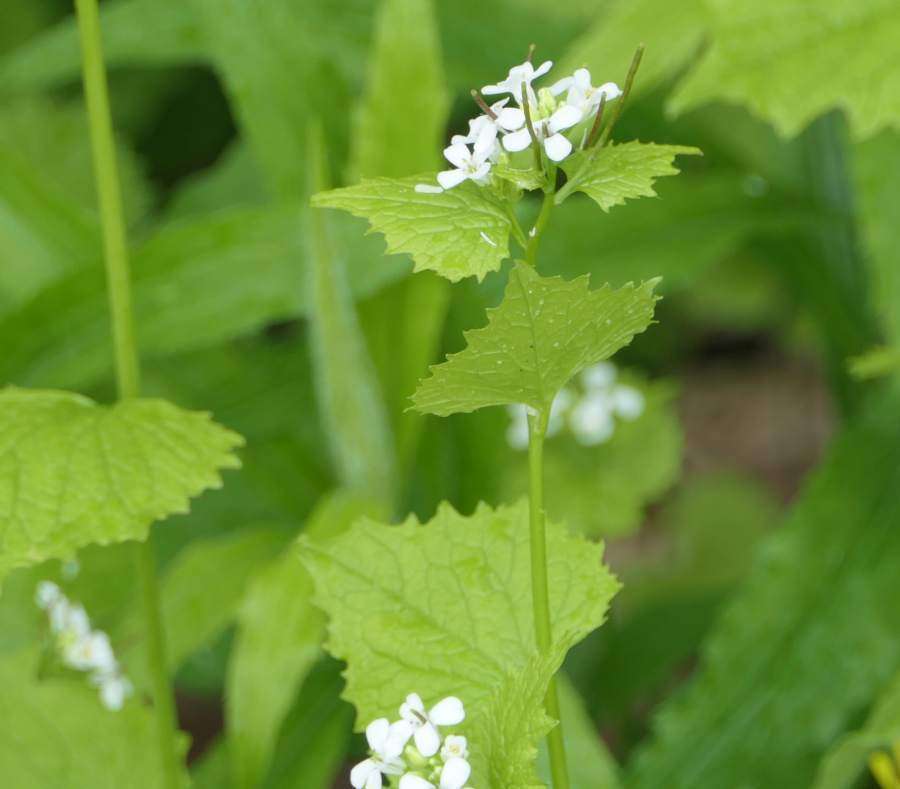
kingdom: Plantae
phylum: Tracheophyta
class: Magnoliopsida
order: Brassicales
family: Brassicaceae
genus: Alliaria
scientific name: Alliaria petiolata
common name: Garlic mustard
